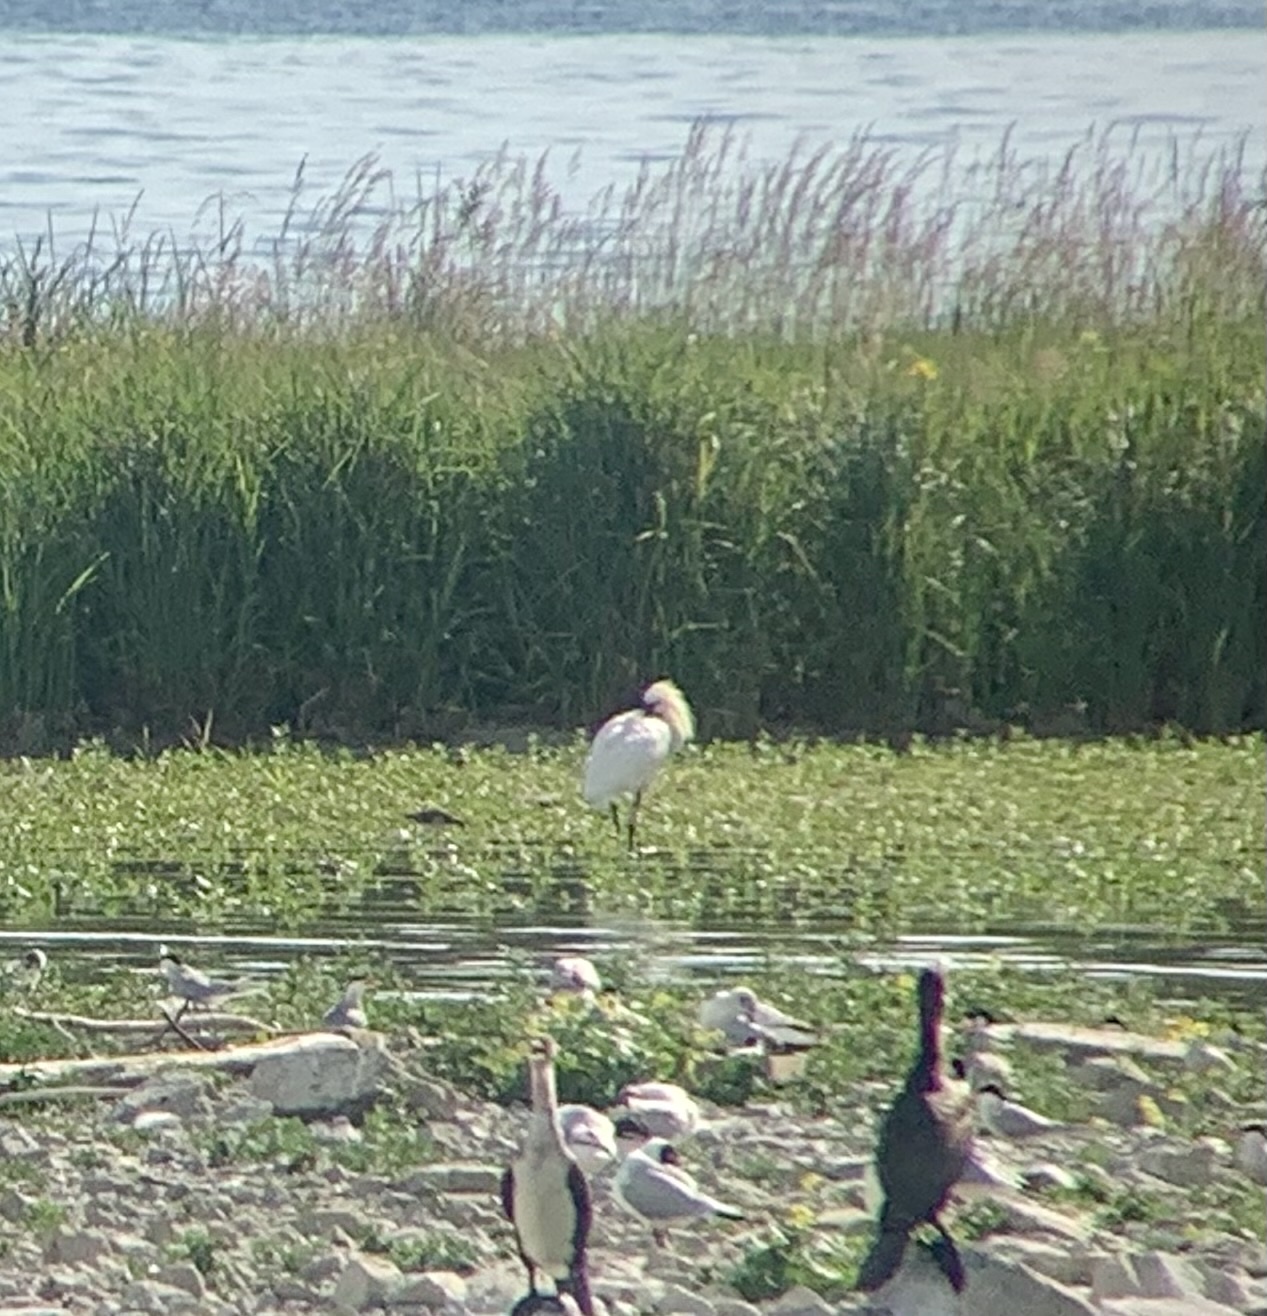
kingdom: Animalia
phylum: Chordata
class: Aves
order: Pelecaniformes
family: Threskiornithidae
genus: Platalea
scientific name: Platalea leucorodia
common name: Eurasian spoonbill
